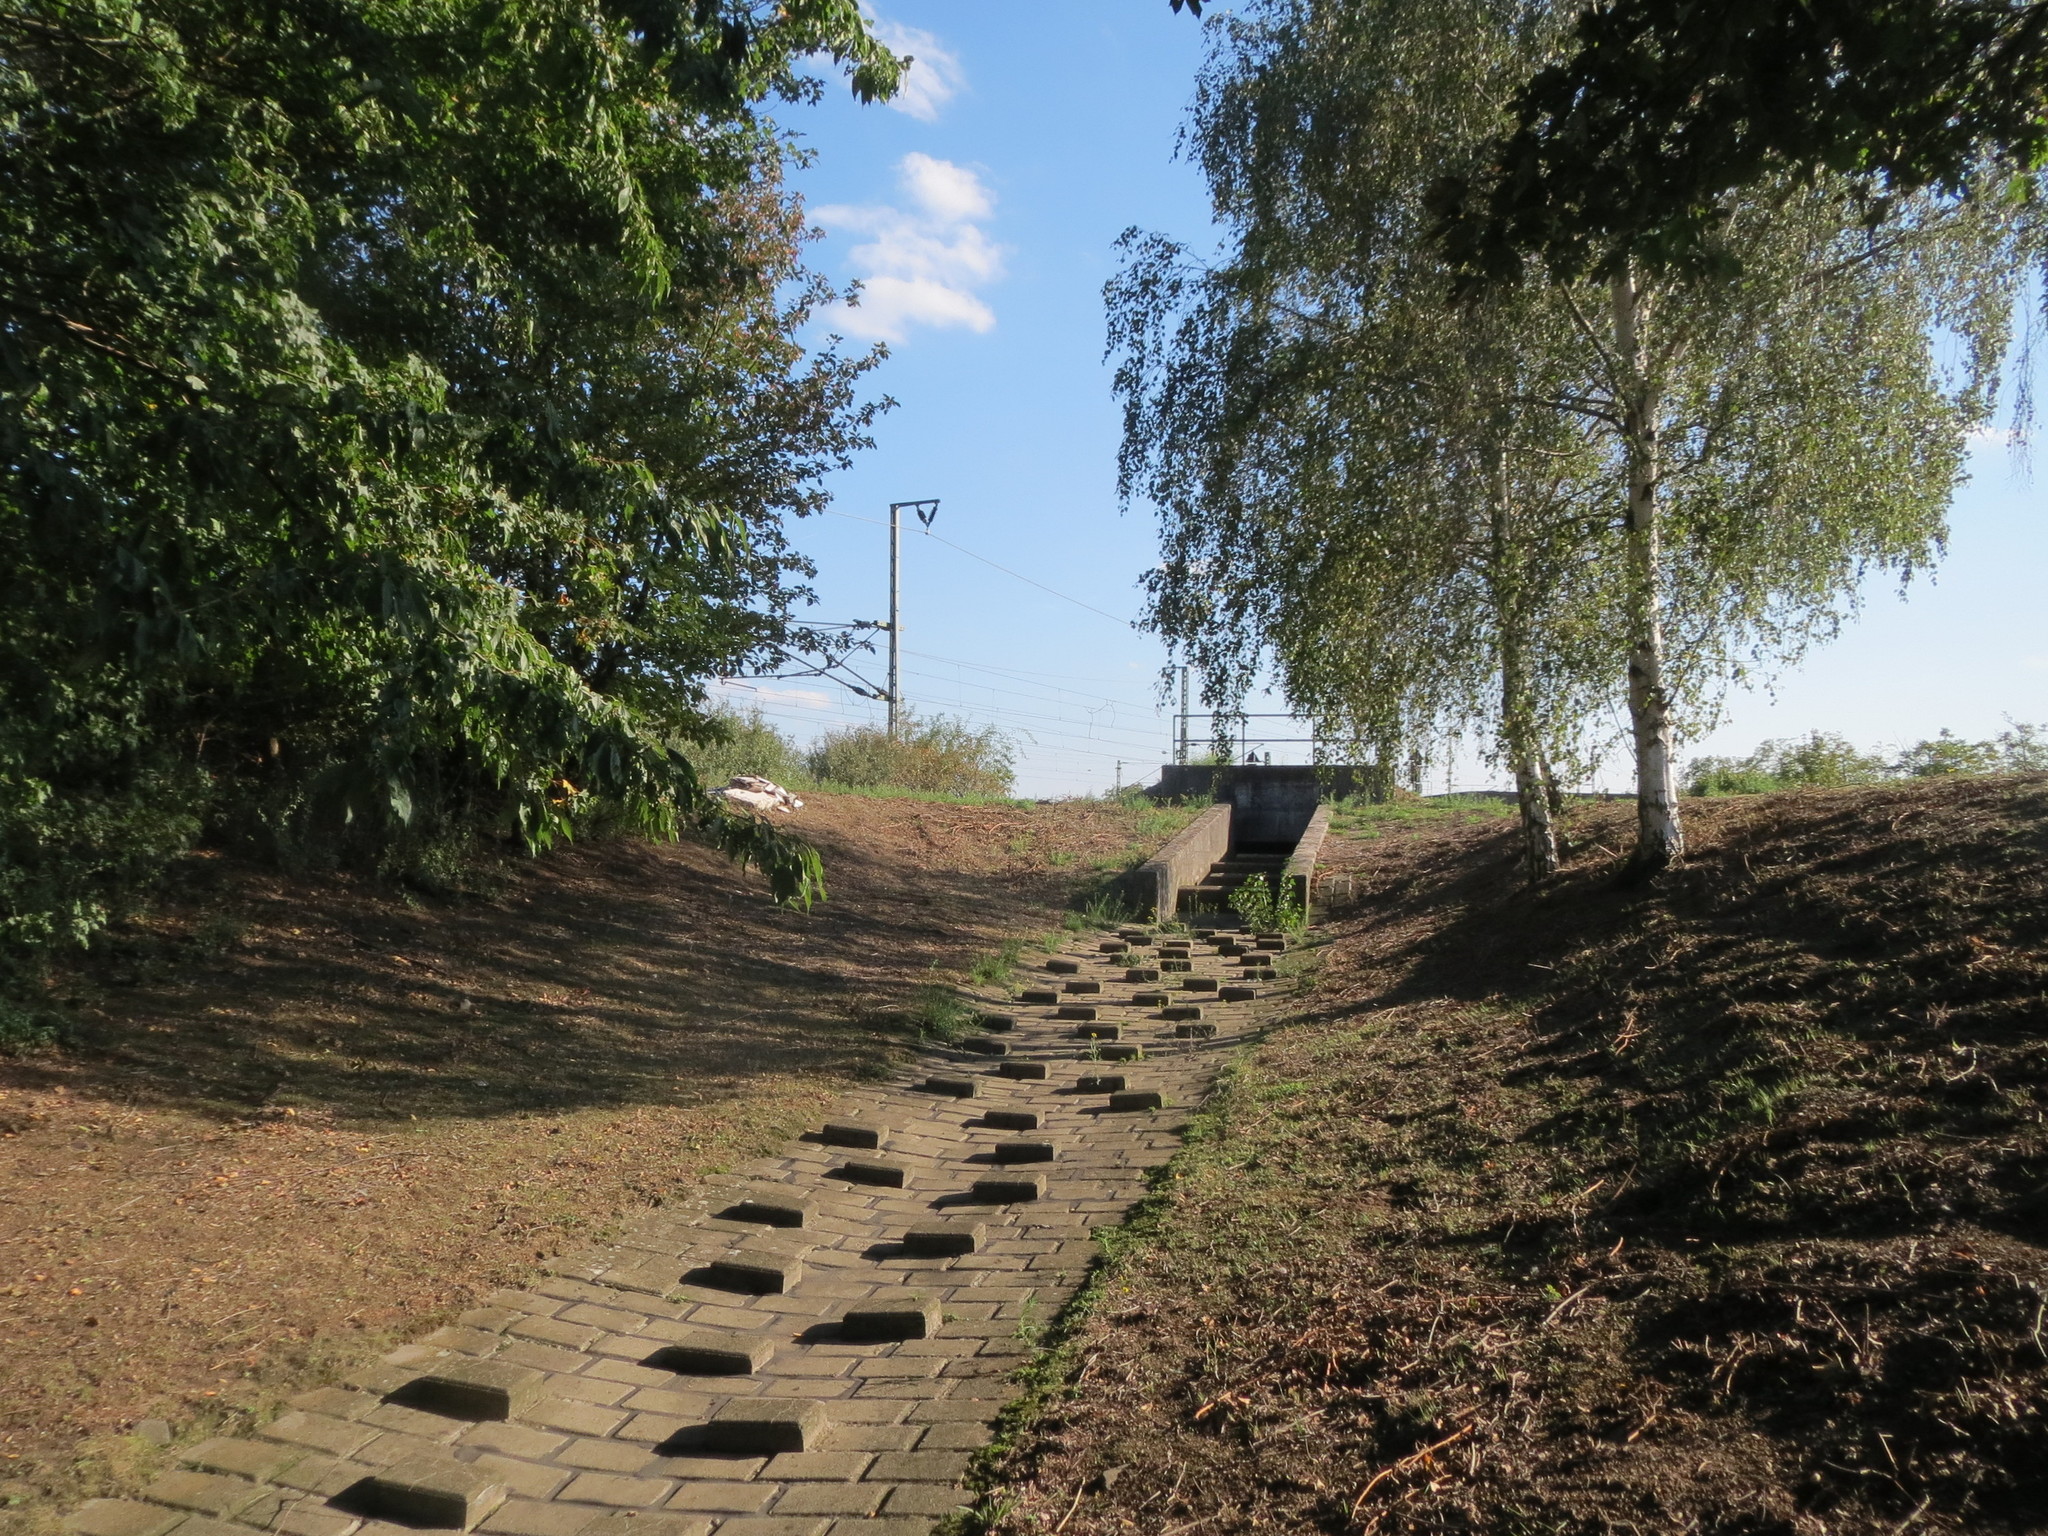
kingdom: Plantae
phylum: Tracheophyta
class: Magnoliopsida
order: Fagales
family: Betulaceae
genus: Betula
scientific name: Betula pendula
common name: Silver birch
